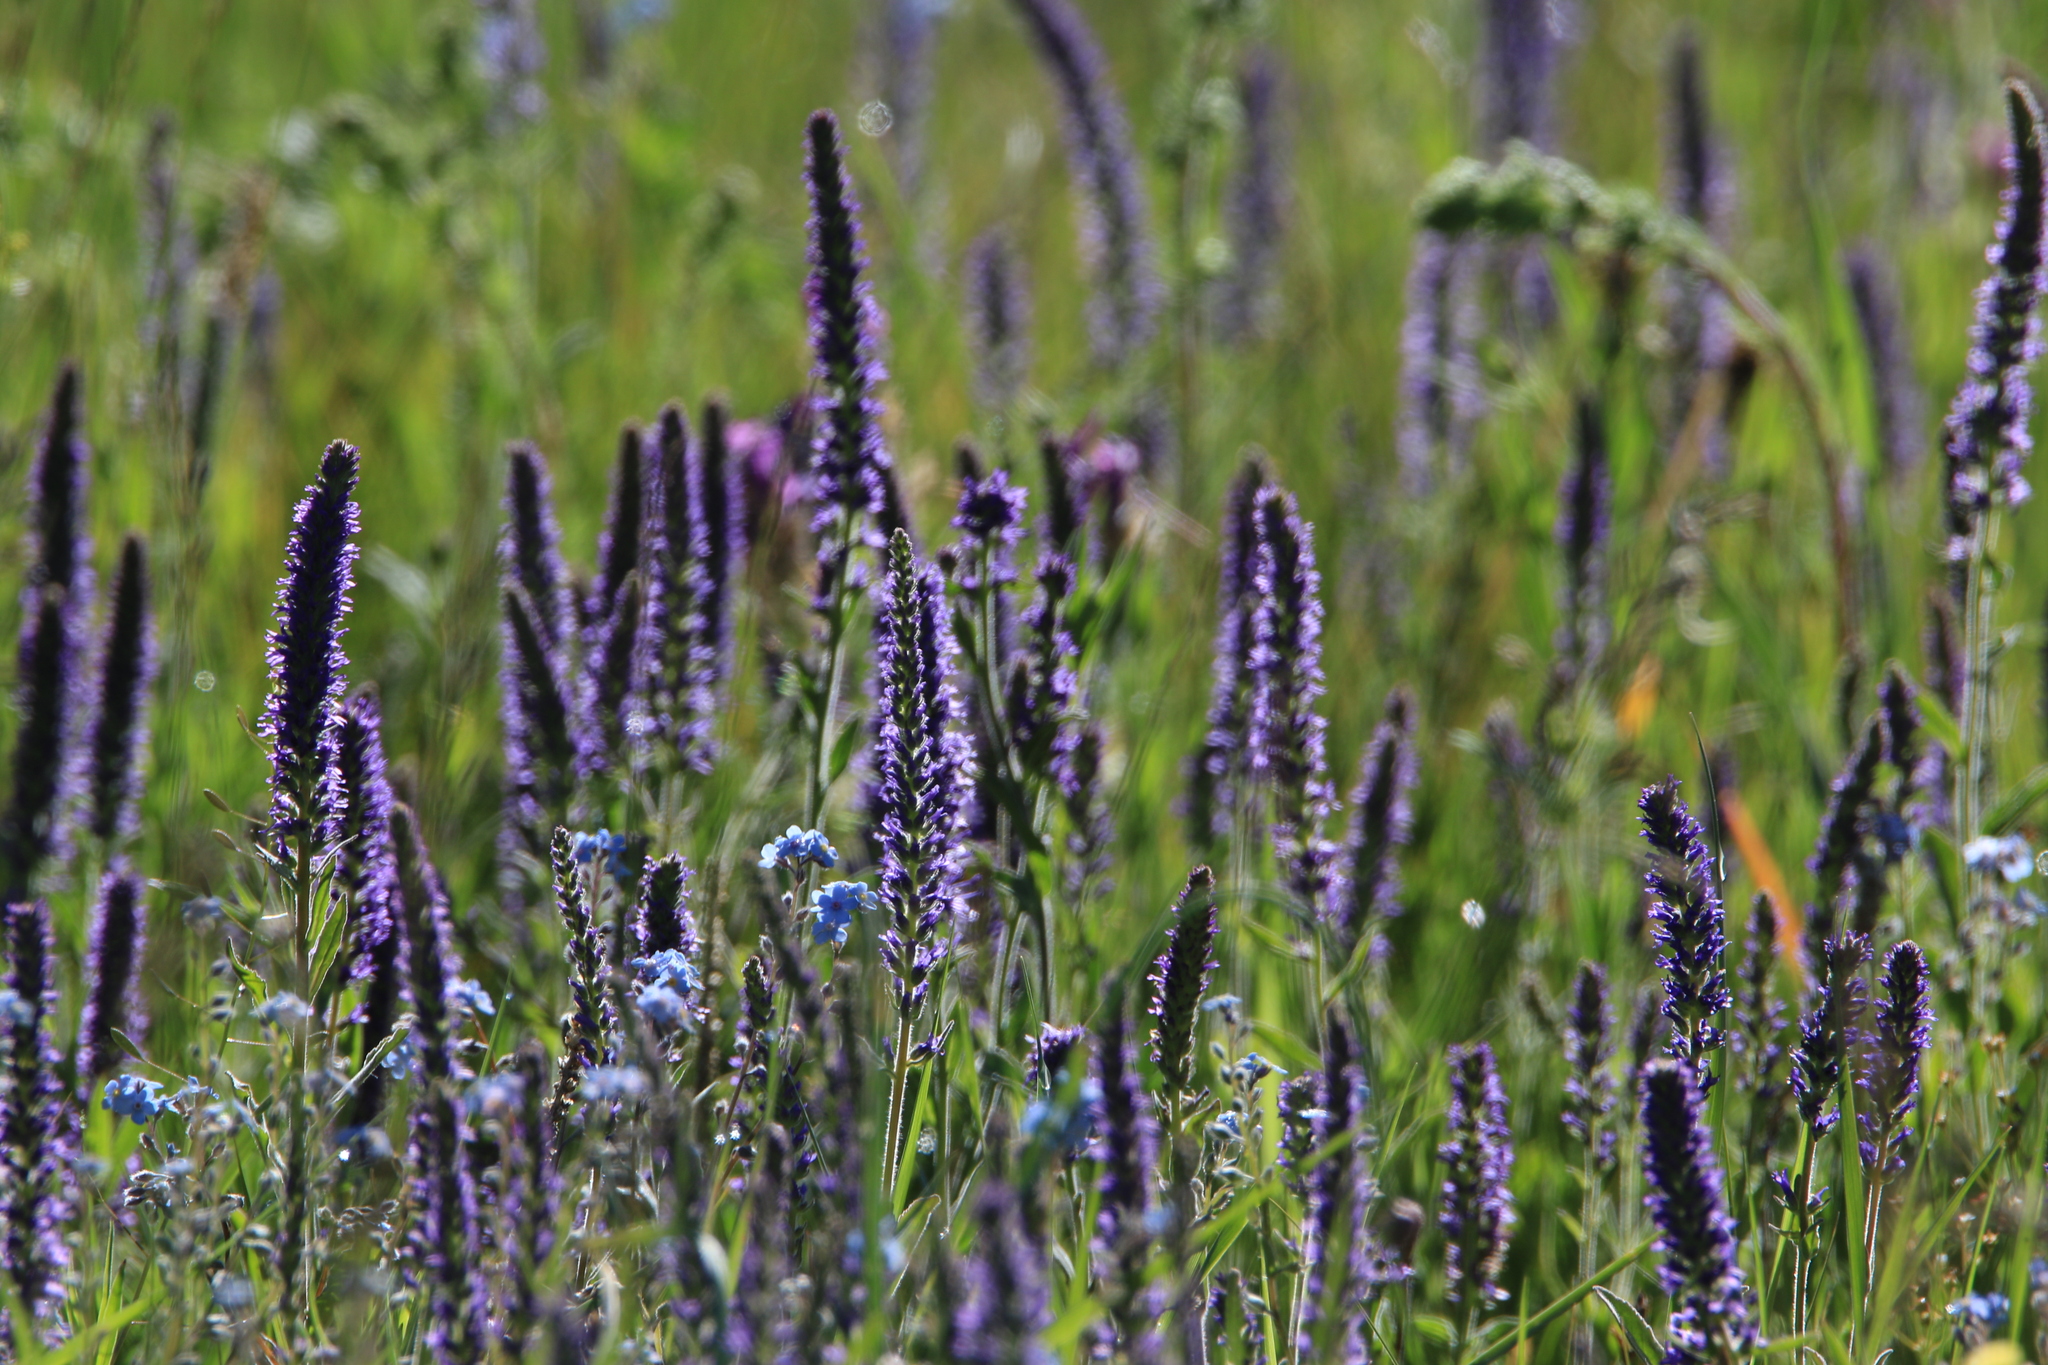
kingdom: Plantae
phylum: Tracheophyta
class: Magnoliopsida
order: Lamiales
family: Plantaginaceae
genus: Veronica
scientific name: Veronica porphyriana
